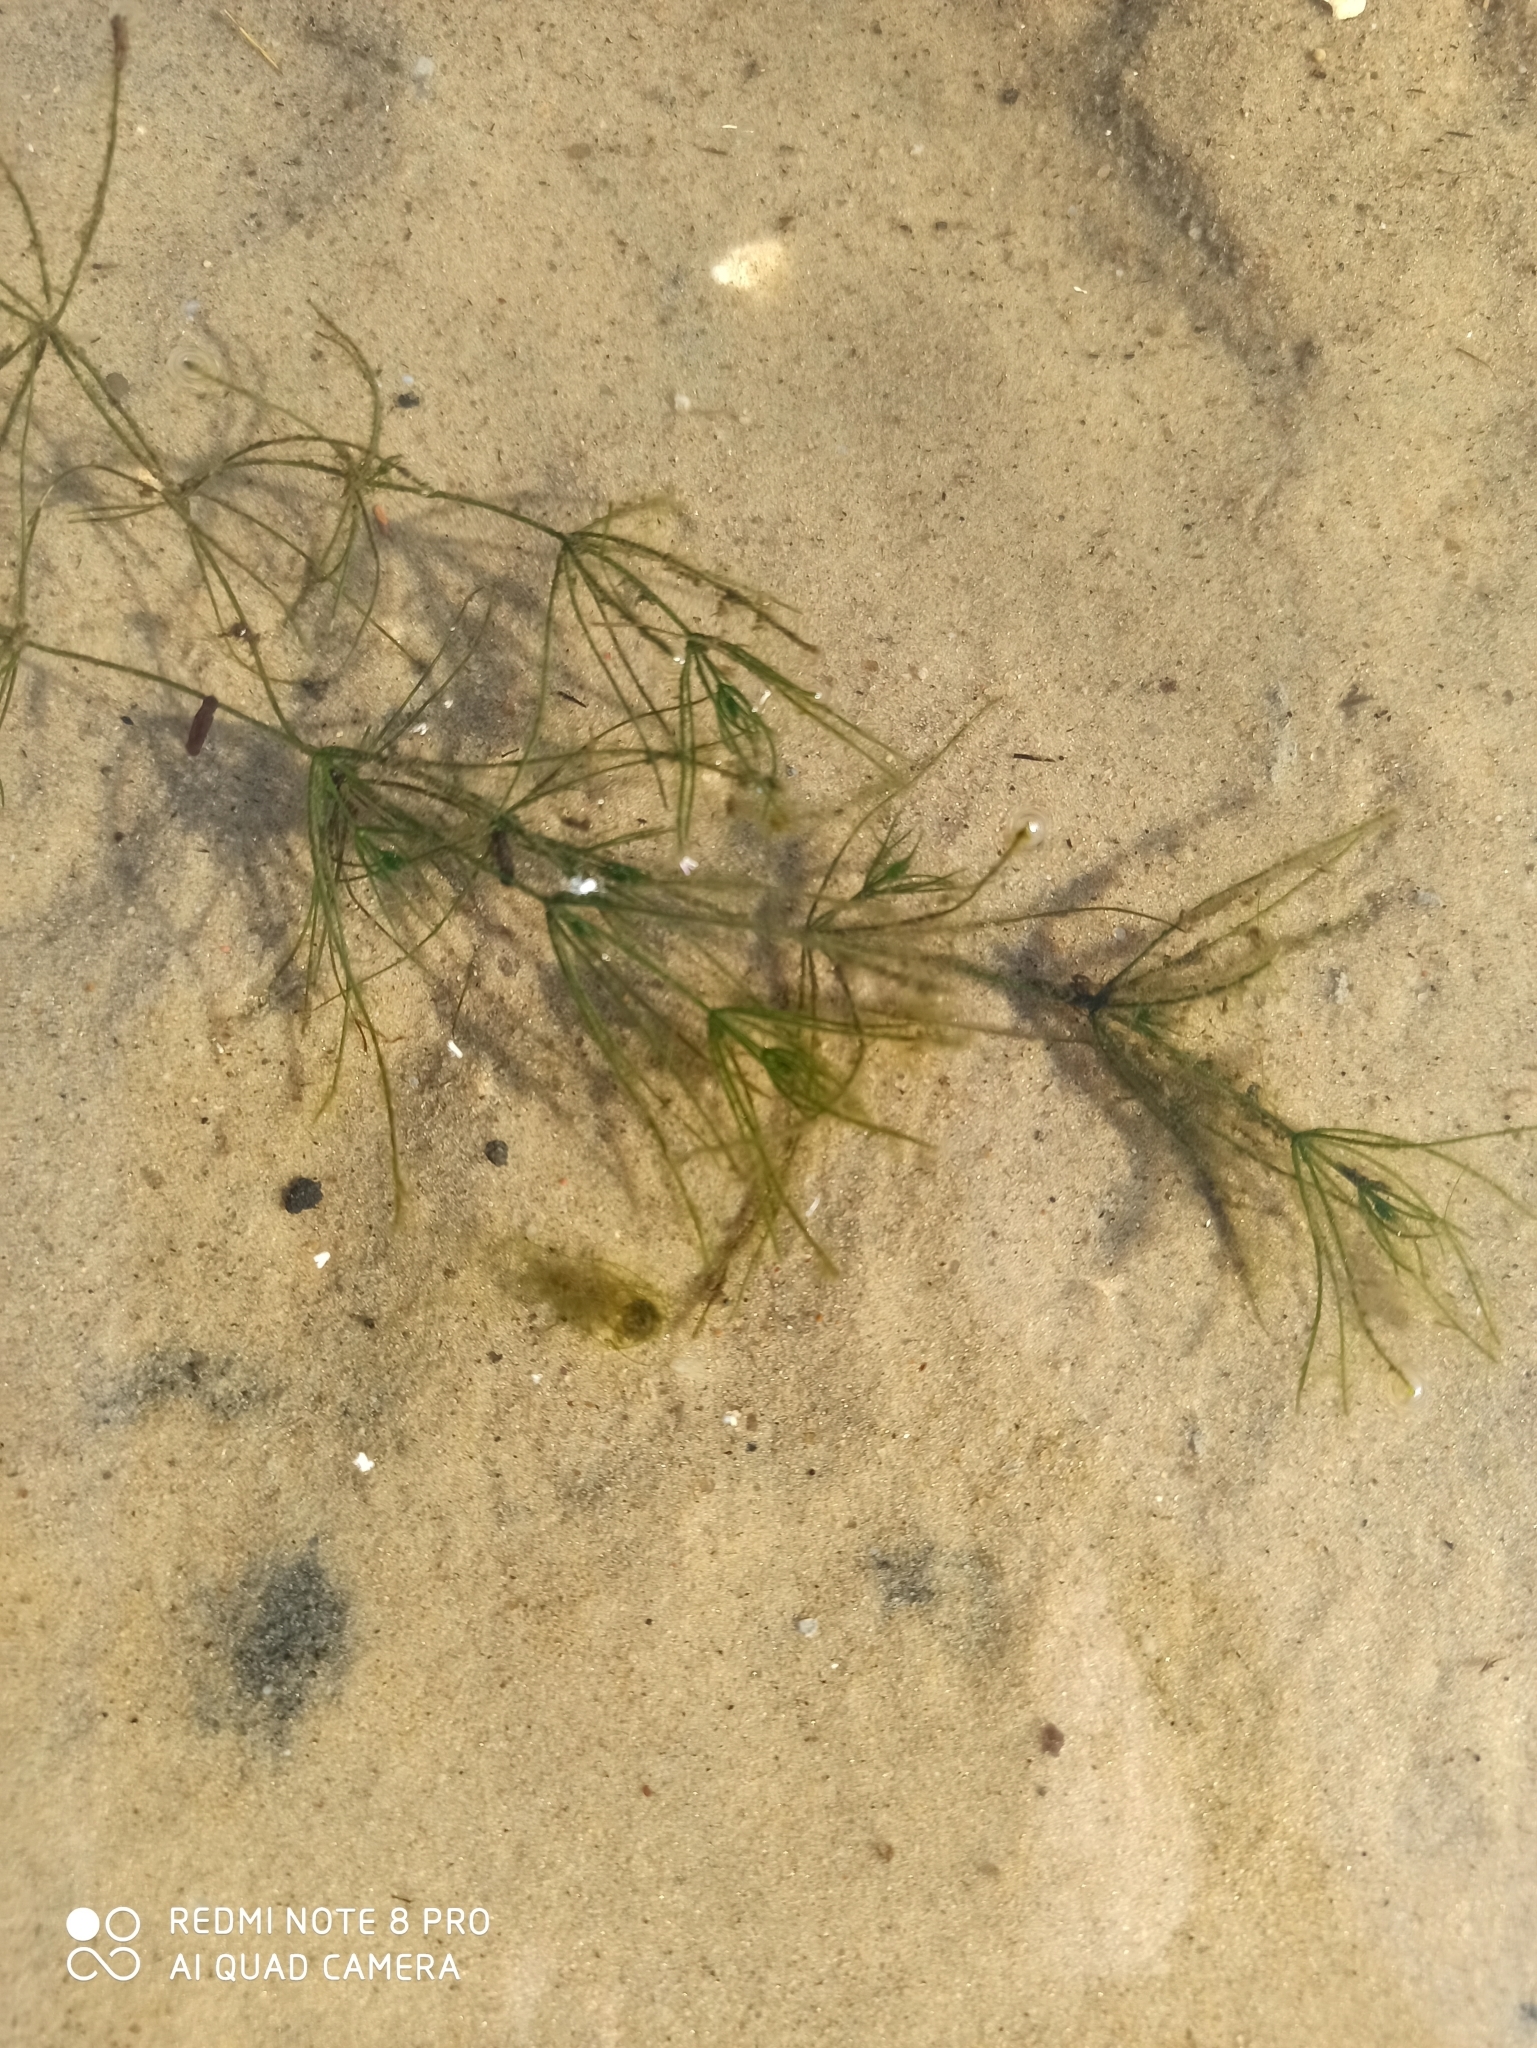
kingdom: Plantae
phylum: Charophyta
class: Charophyceae
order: Charales
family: Characeae
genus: Chara
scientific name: Chara globularis
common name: Fragile stonewort
